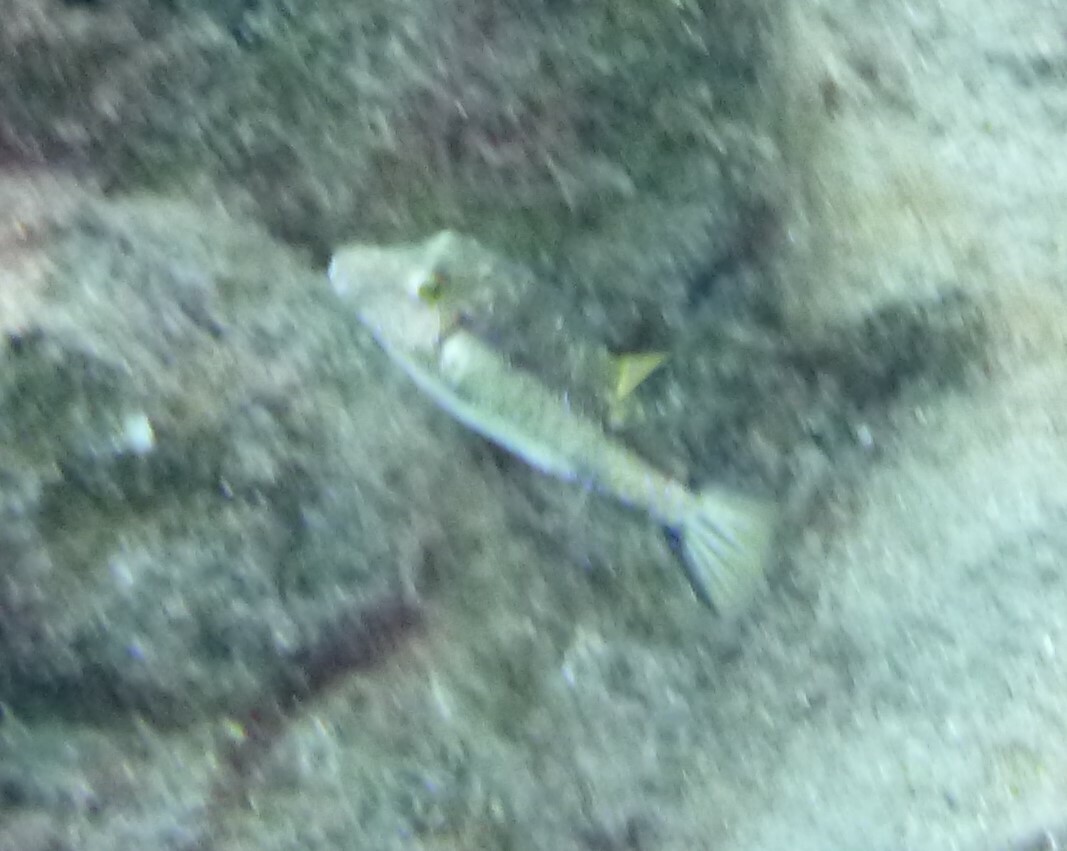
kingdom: Animalia
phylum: Chordata
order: Tetraodontiformes
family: Tetraodontidae
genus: Canthigaster
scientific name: Canthigaster capistrata
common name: Macaronesian sharpnose-puffer
